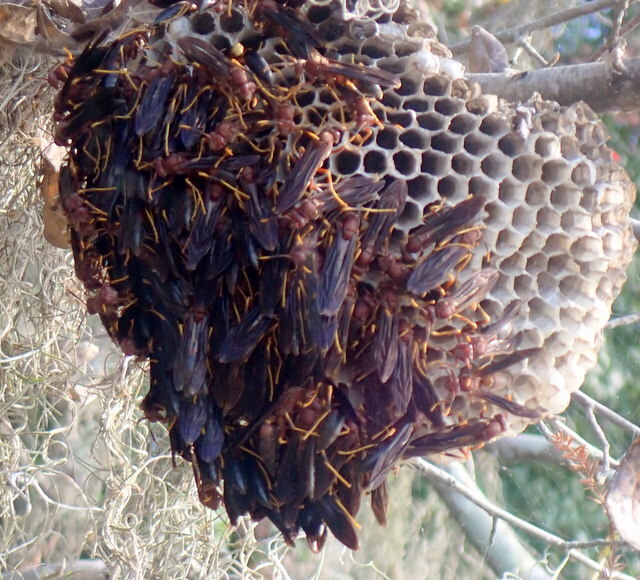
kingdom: Animalia
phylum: Arthropoda
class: Insecta
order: Hymenoptera
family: Eumenidae
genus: Polistes
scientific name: Polistes annularis
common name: Ringed paper wasp
